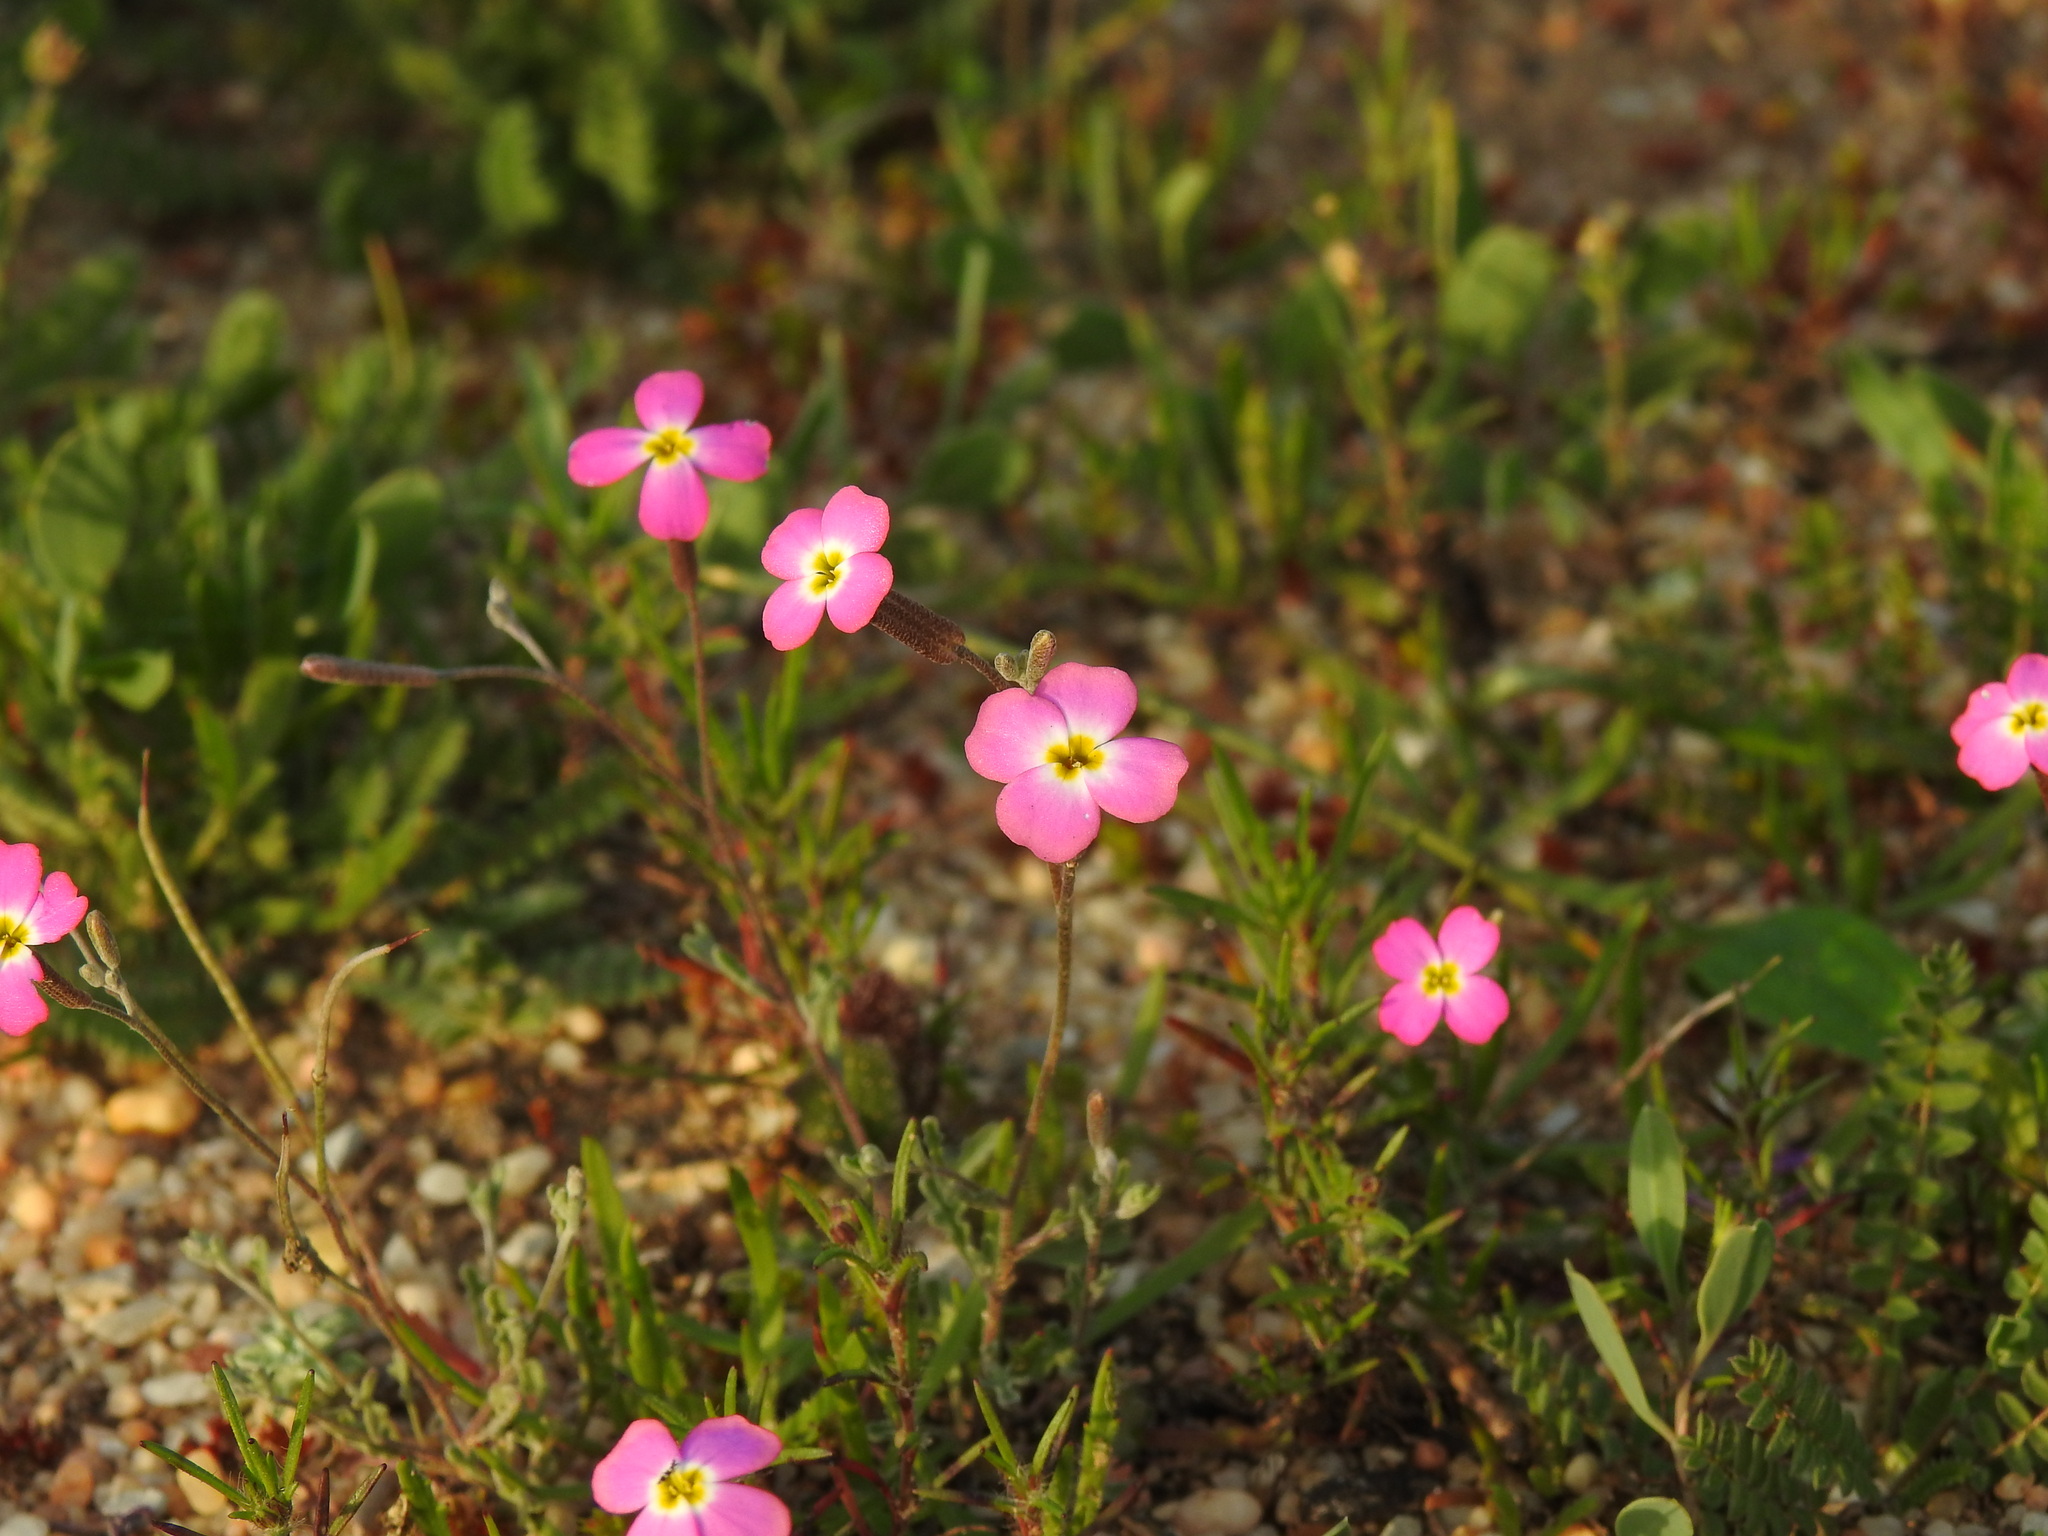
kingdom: Plantae
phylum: Tracheophyta
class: Magnoliopsida
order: Brassicales
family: Brassicaceae
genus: Marcuskochia
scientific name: Marcuskochia triloba
